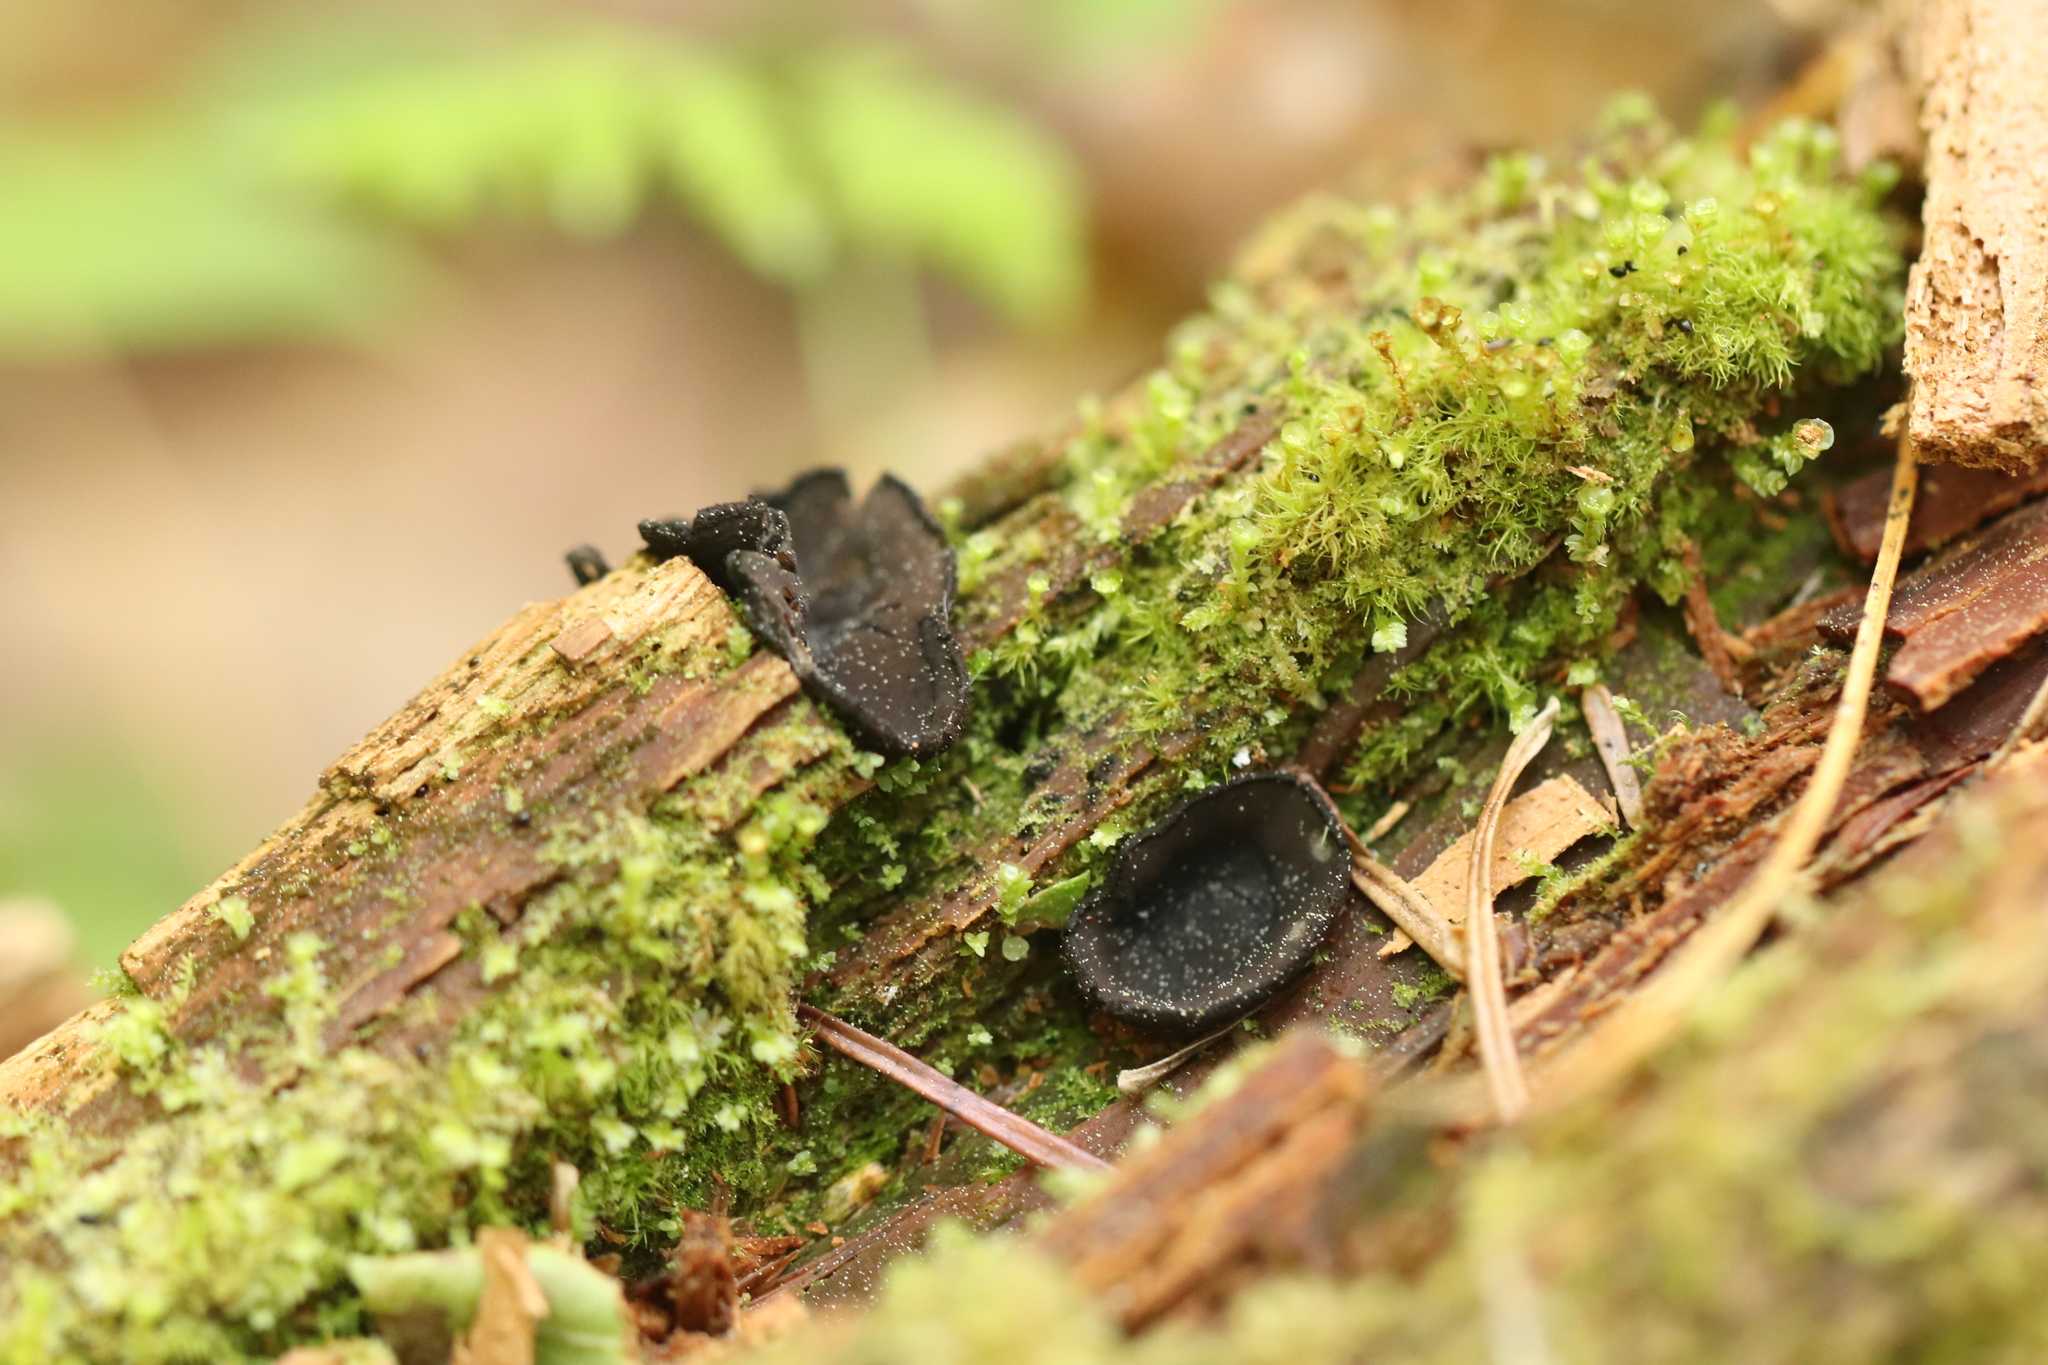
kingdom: Fungi
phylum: Ascomycota
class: Pezizomycetes
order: Pezizales
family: Sarcosomataceae
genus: Pseudoplectania
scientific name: Pseudoplectania nigrella
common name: Ebony cup
